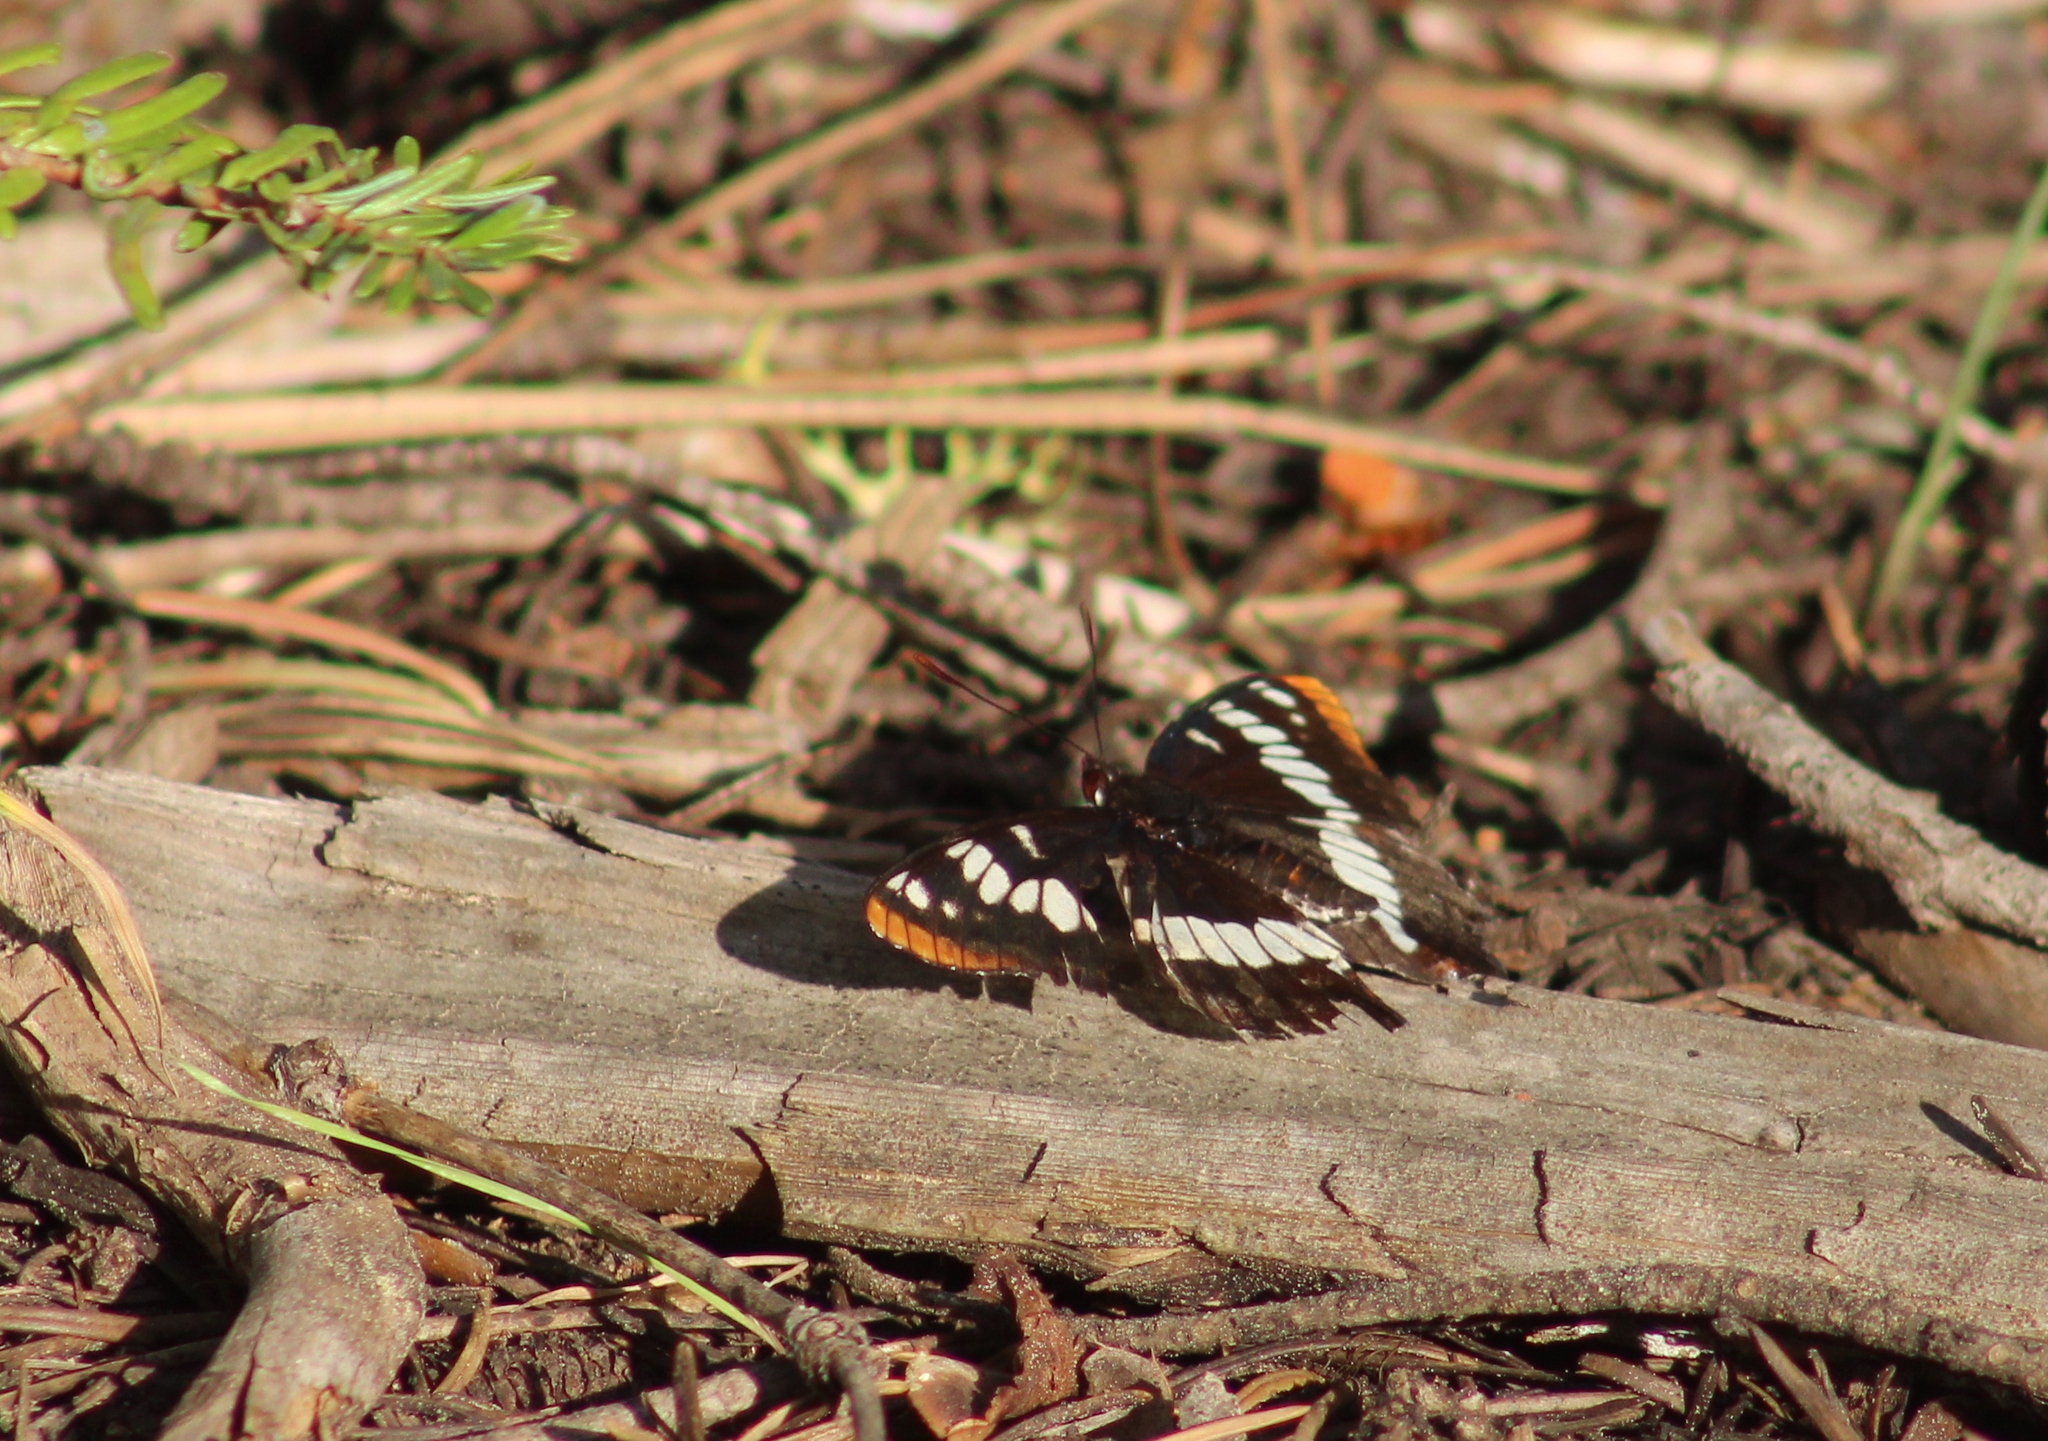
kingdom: Animalia
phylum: Arthropoda
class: Insecta
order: Lepidoptera
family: Nymphalidae
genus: Limenitis
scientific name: Limenitis lorquini
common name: Lorquin's admiral
